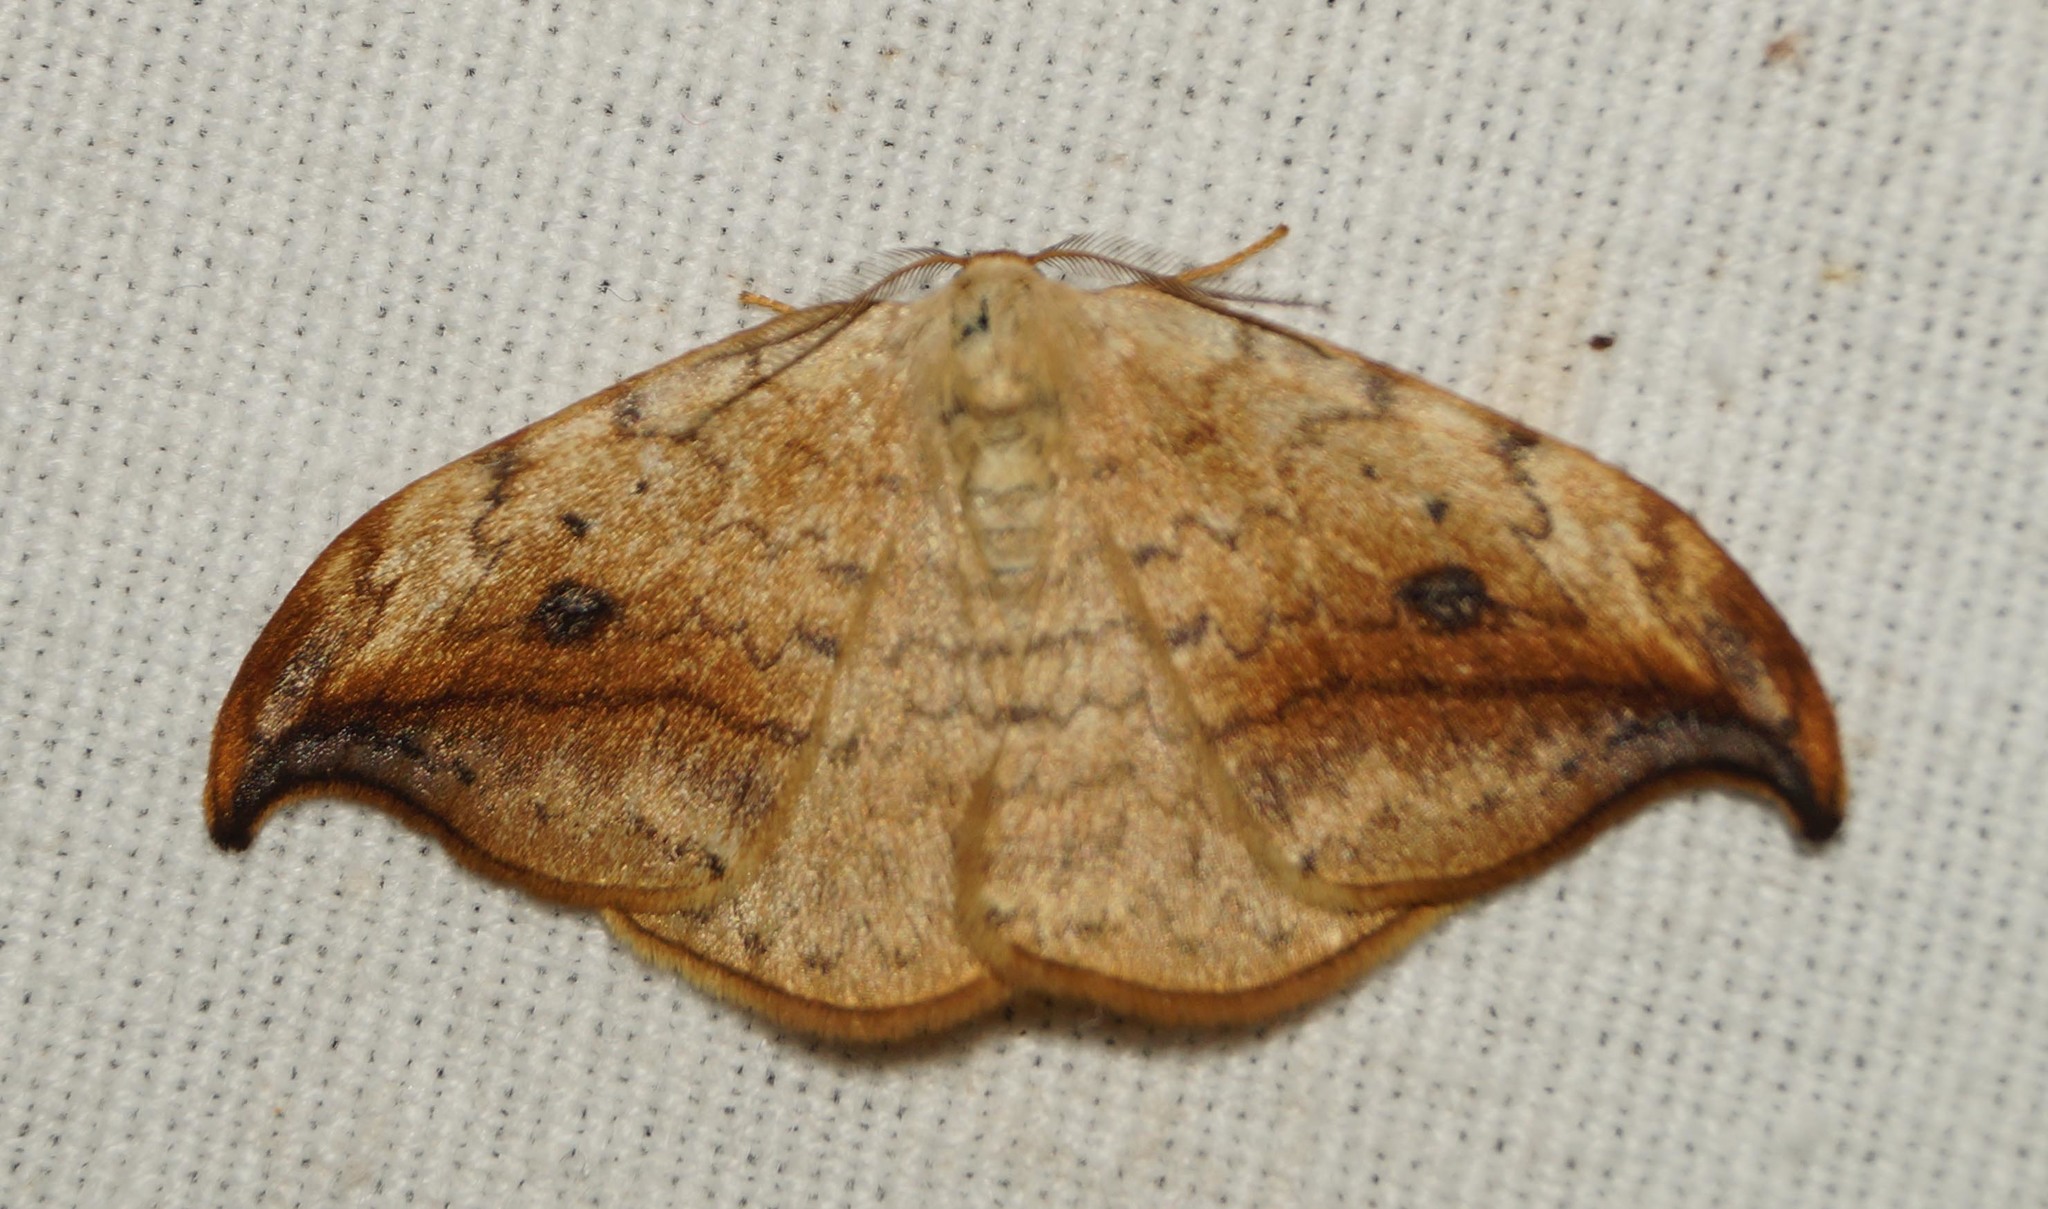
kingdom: Animalia
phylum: Arthropoda
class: Insecta
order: Lepidoptera
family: Drepanidae
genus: Drepana
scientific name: Drepana falcataria
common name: Pebble hook-tip
